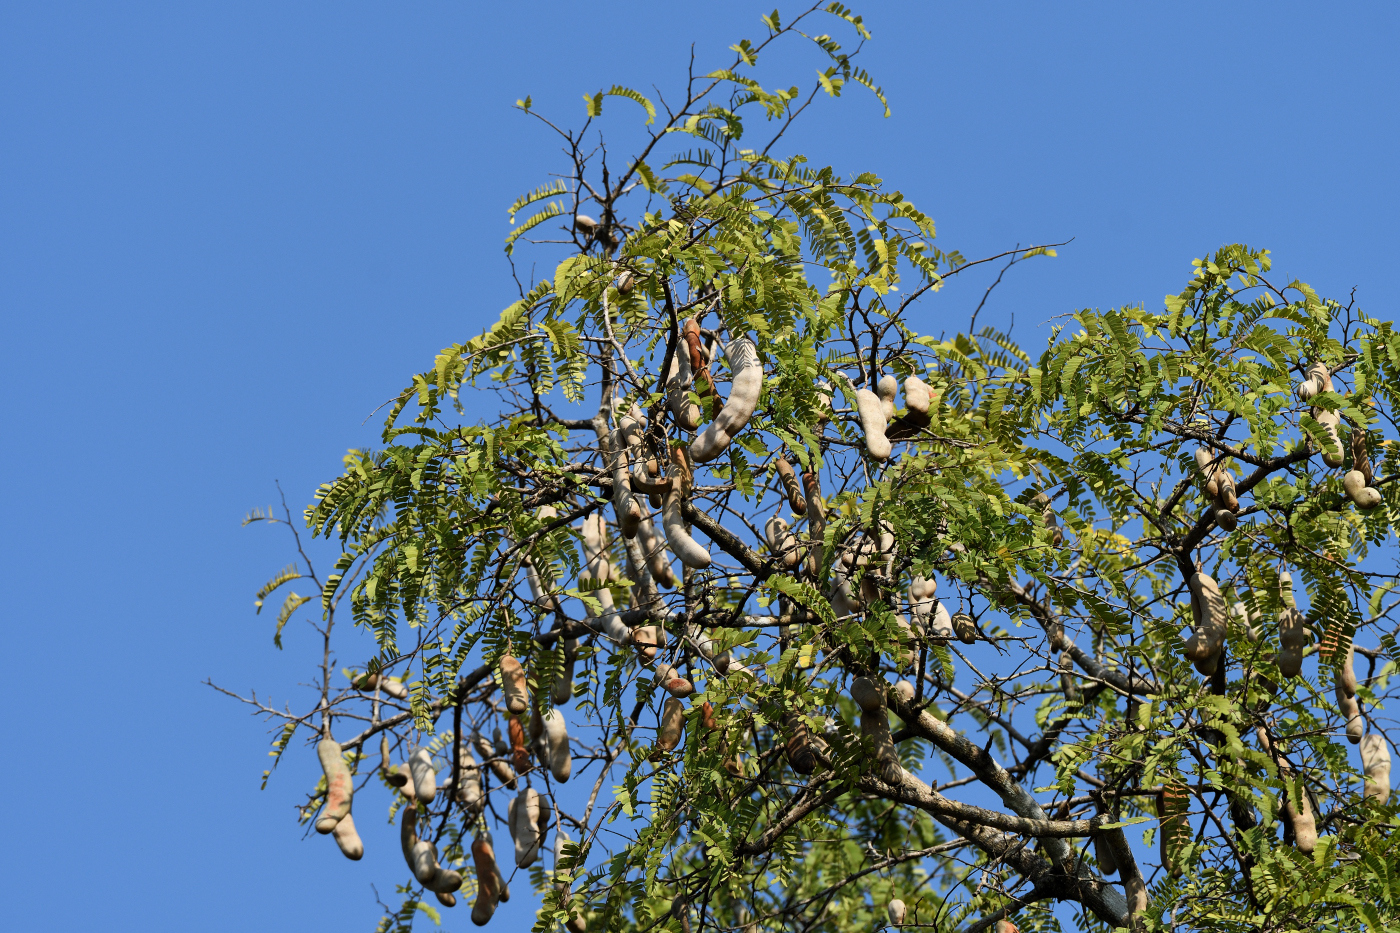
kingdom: Plantae
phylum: Tracheophyta
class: Magnoliopsida
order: Fabales
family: Fabaceae
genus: Tamarindus
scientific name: Tamarindus indica
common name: Tamarind
